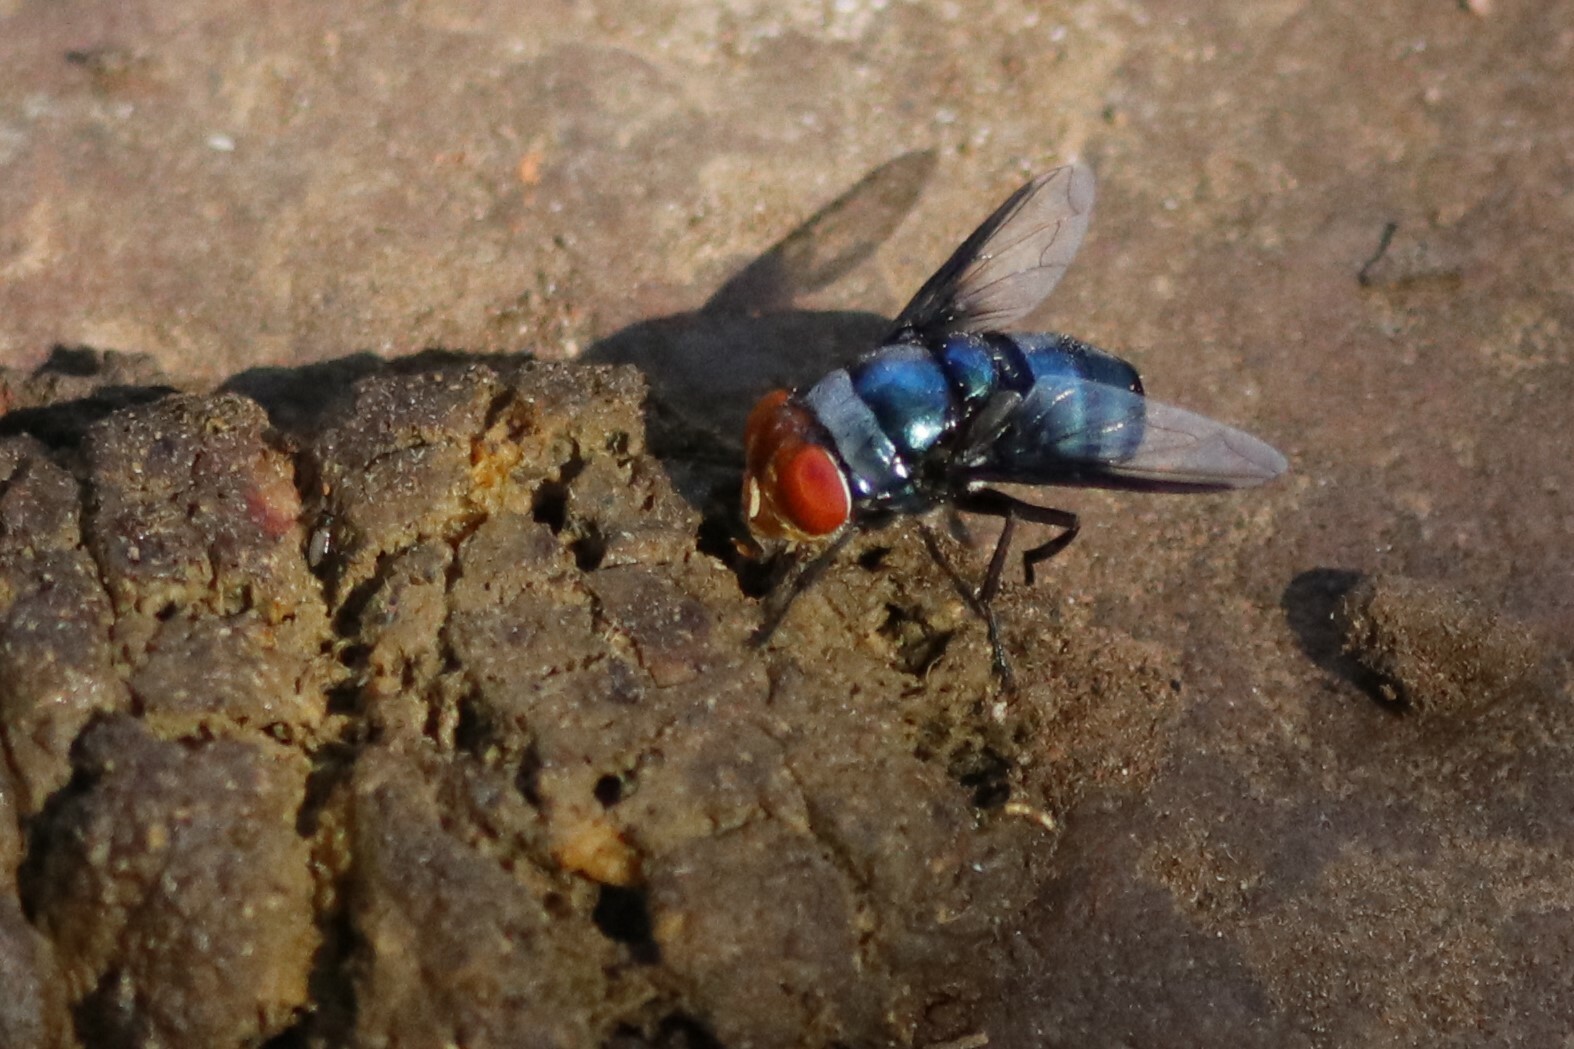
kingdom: Animalia
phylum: Arthropoda
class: Insecta
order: Diptera
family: Calliphoridae
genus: Chrysomya
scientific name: Chrysomya marginalis
